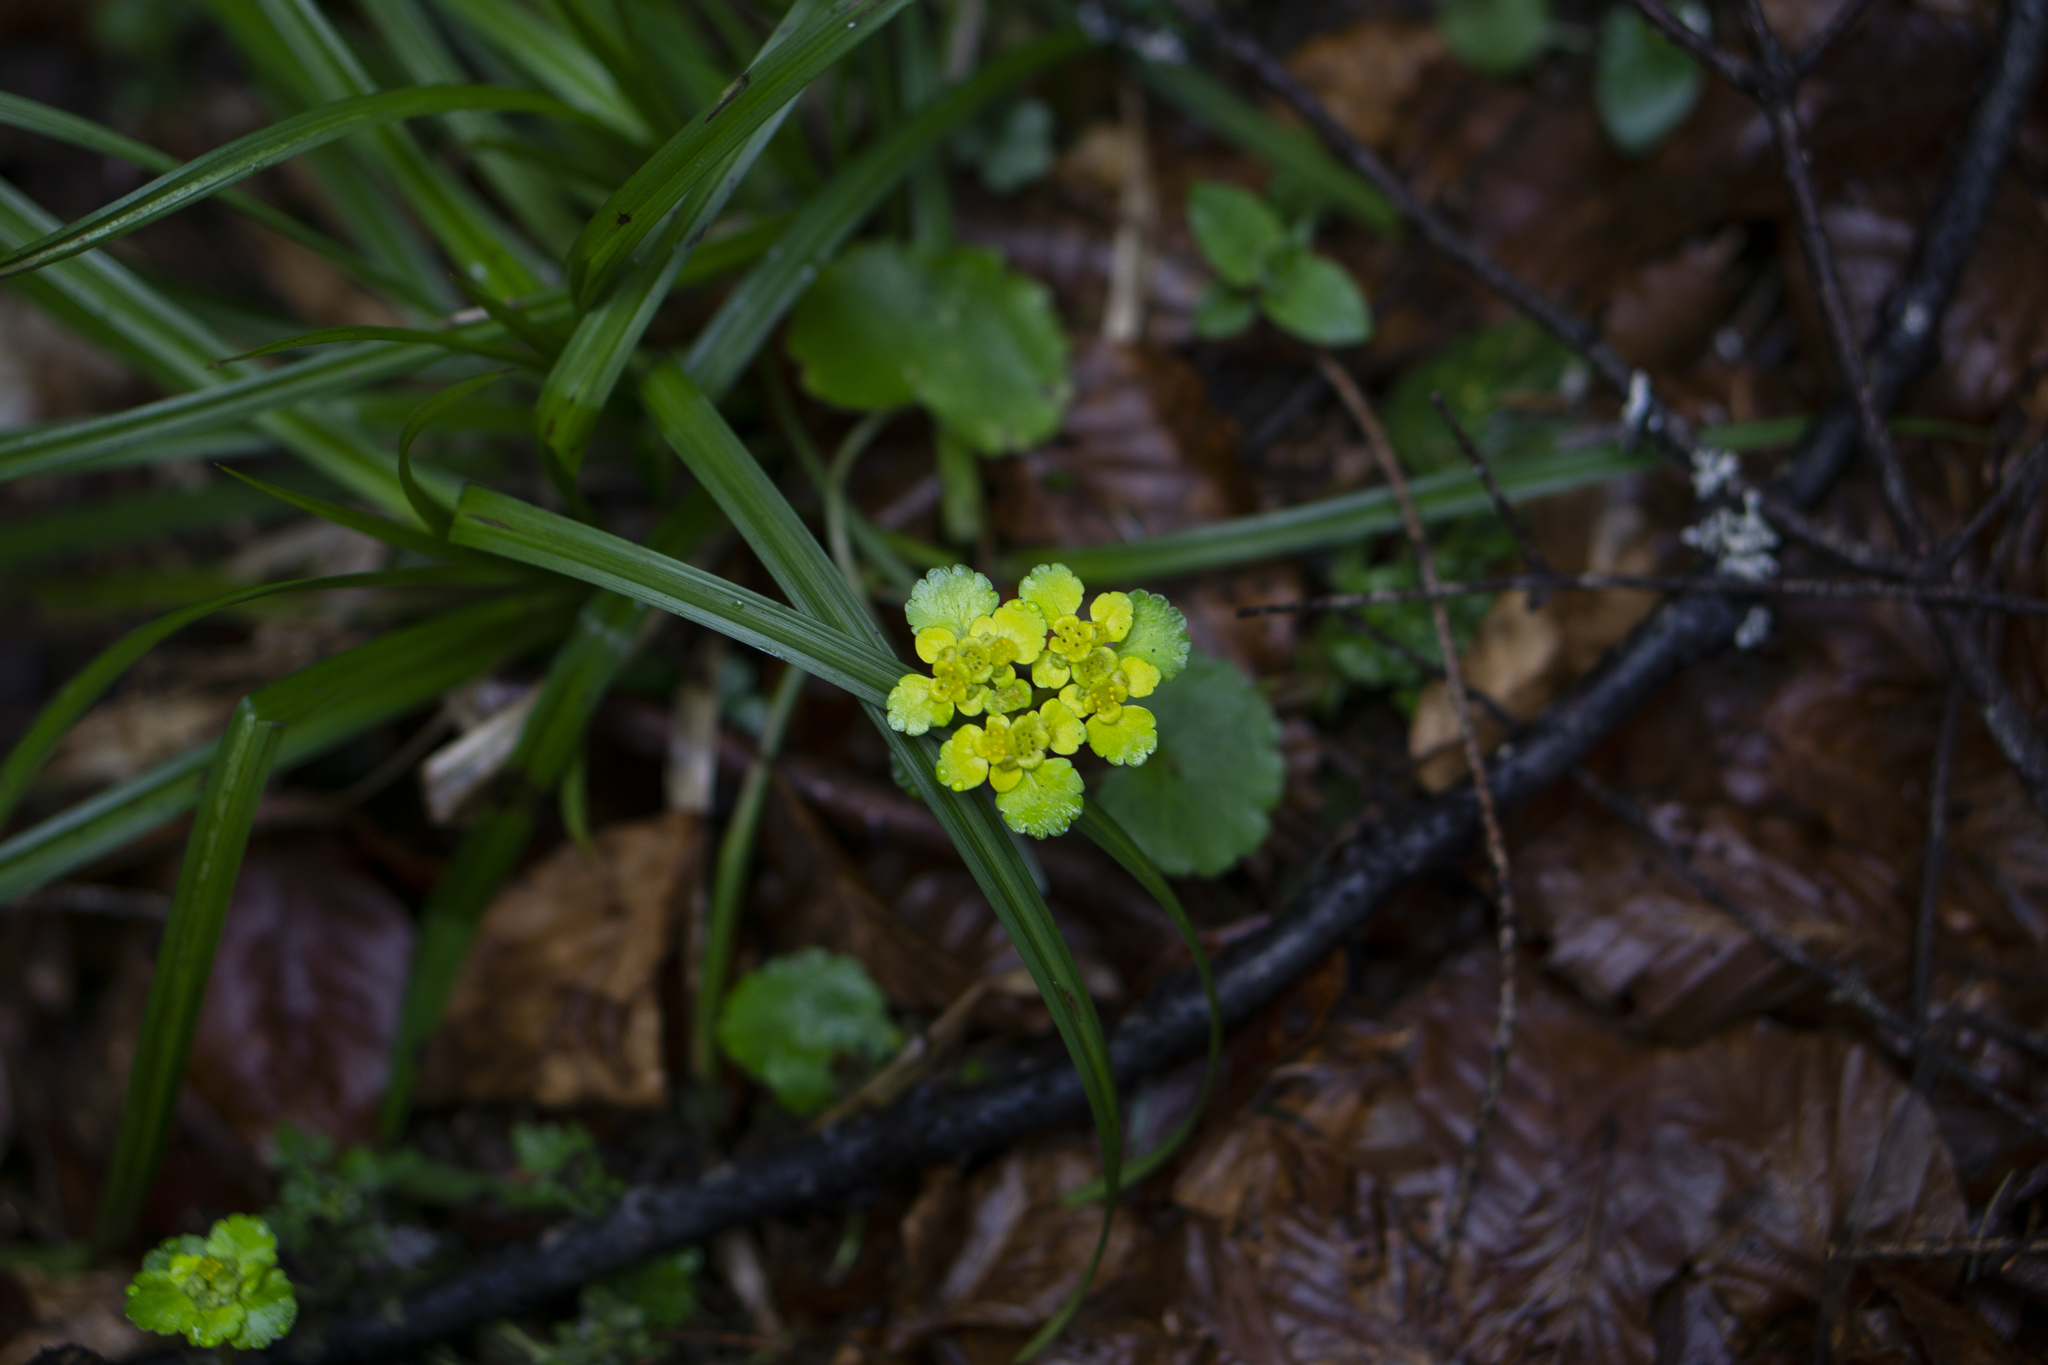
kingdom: Plantae
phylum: Tracheophyta
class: Magnoliopsida
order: Saxifragales
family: Saxifragaceae
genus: Chrysosplenium
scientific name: Chrysosplenium alternifolium
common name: Alternate-leaved golden-saxifrage
